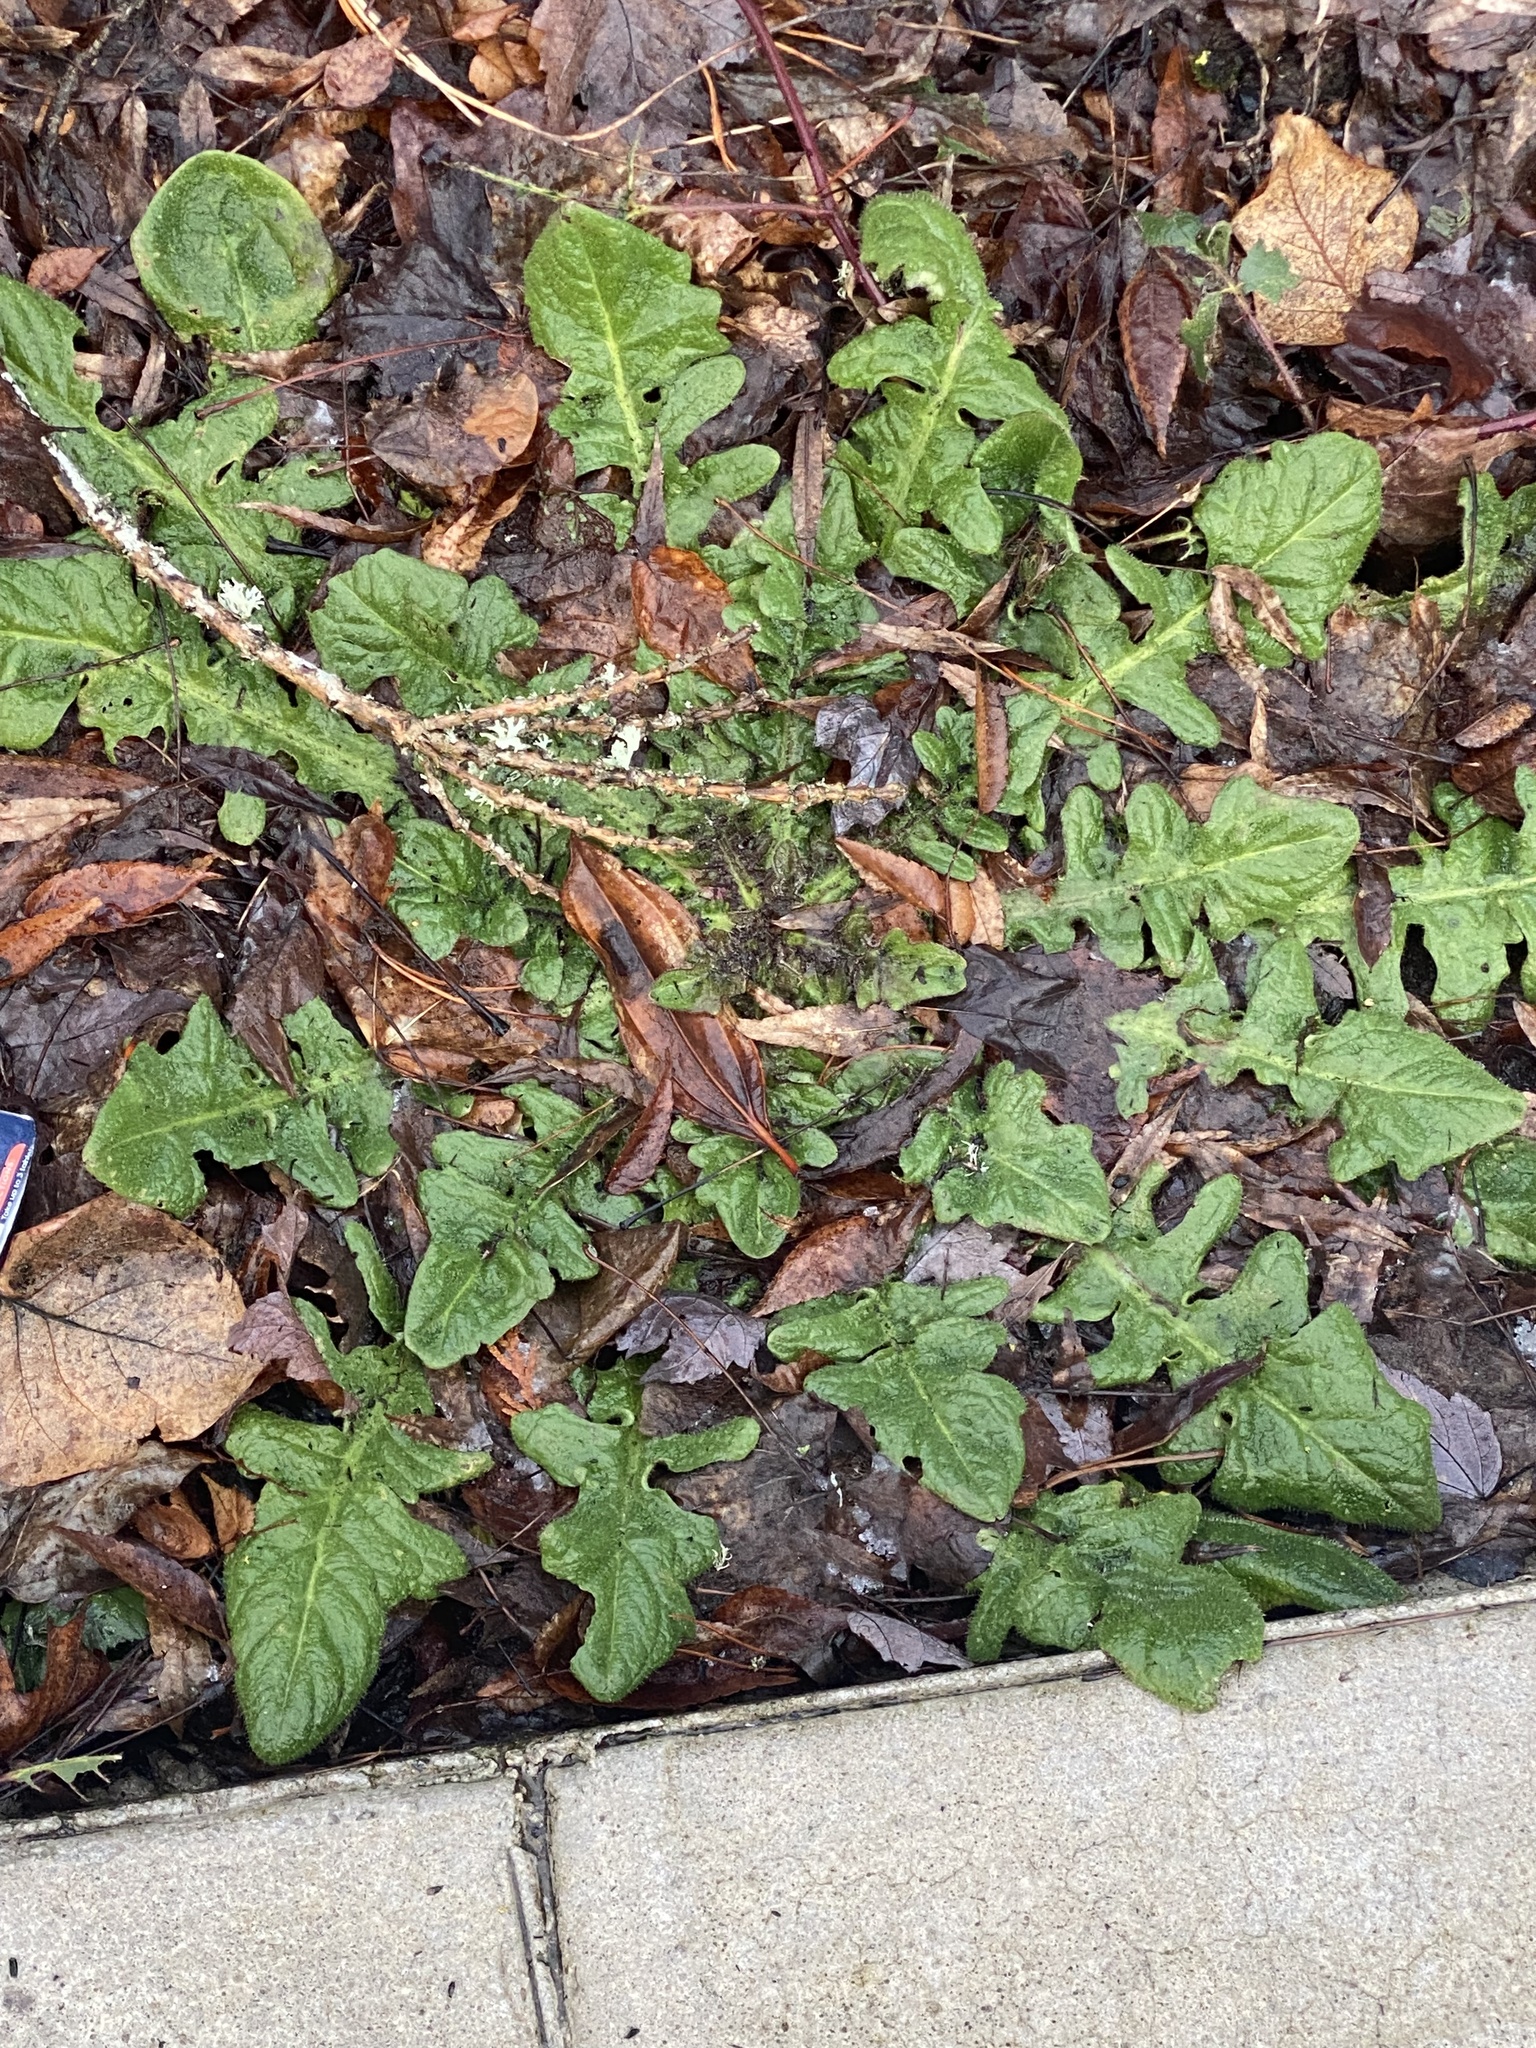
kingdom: Plantae
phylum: Tracheophyta
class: Magnoliopsida
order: Asterales
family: Asteraceae
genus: Taraxacum
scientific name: Taraxacum officinale
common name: Common dandelion
